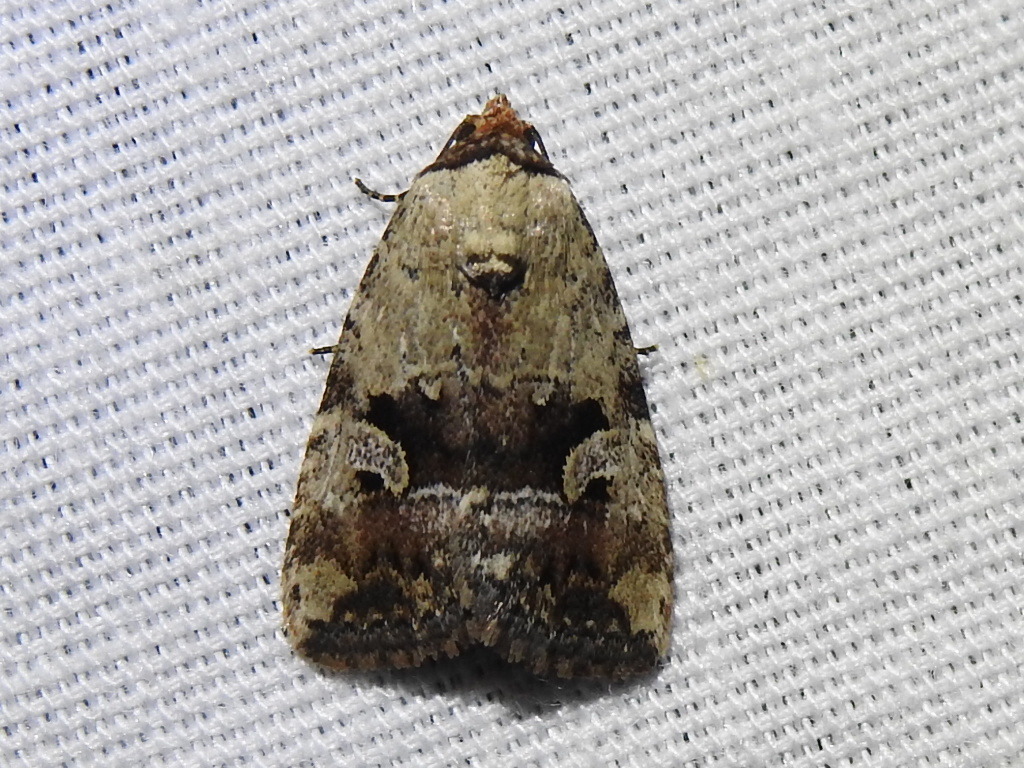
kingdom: Animalia
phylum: Arthropoda
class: Insecta
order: Lepidoptera
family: Noctuidae
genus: Elaphria
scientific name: Elaphria festivoides
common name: Festive midget
